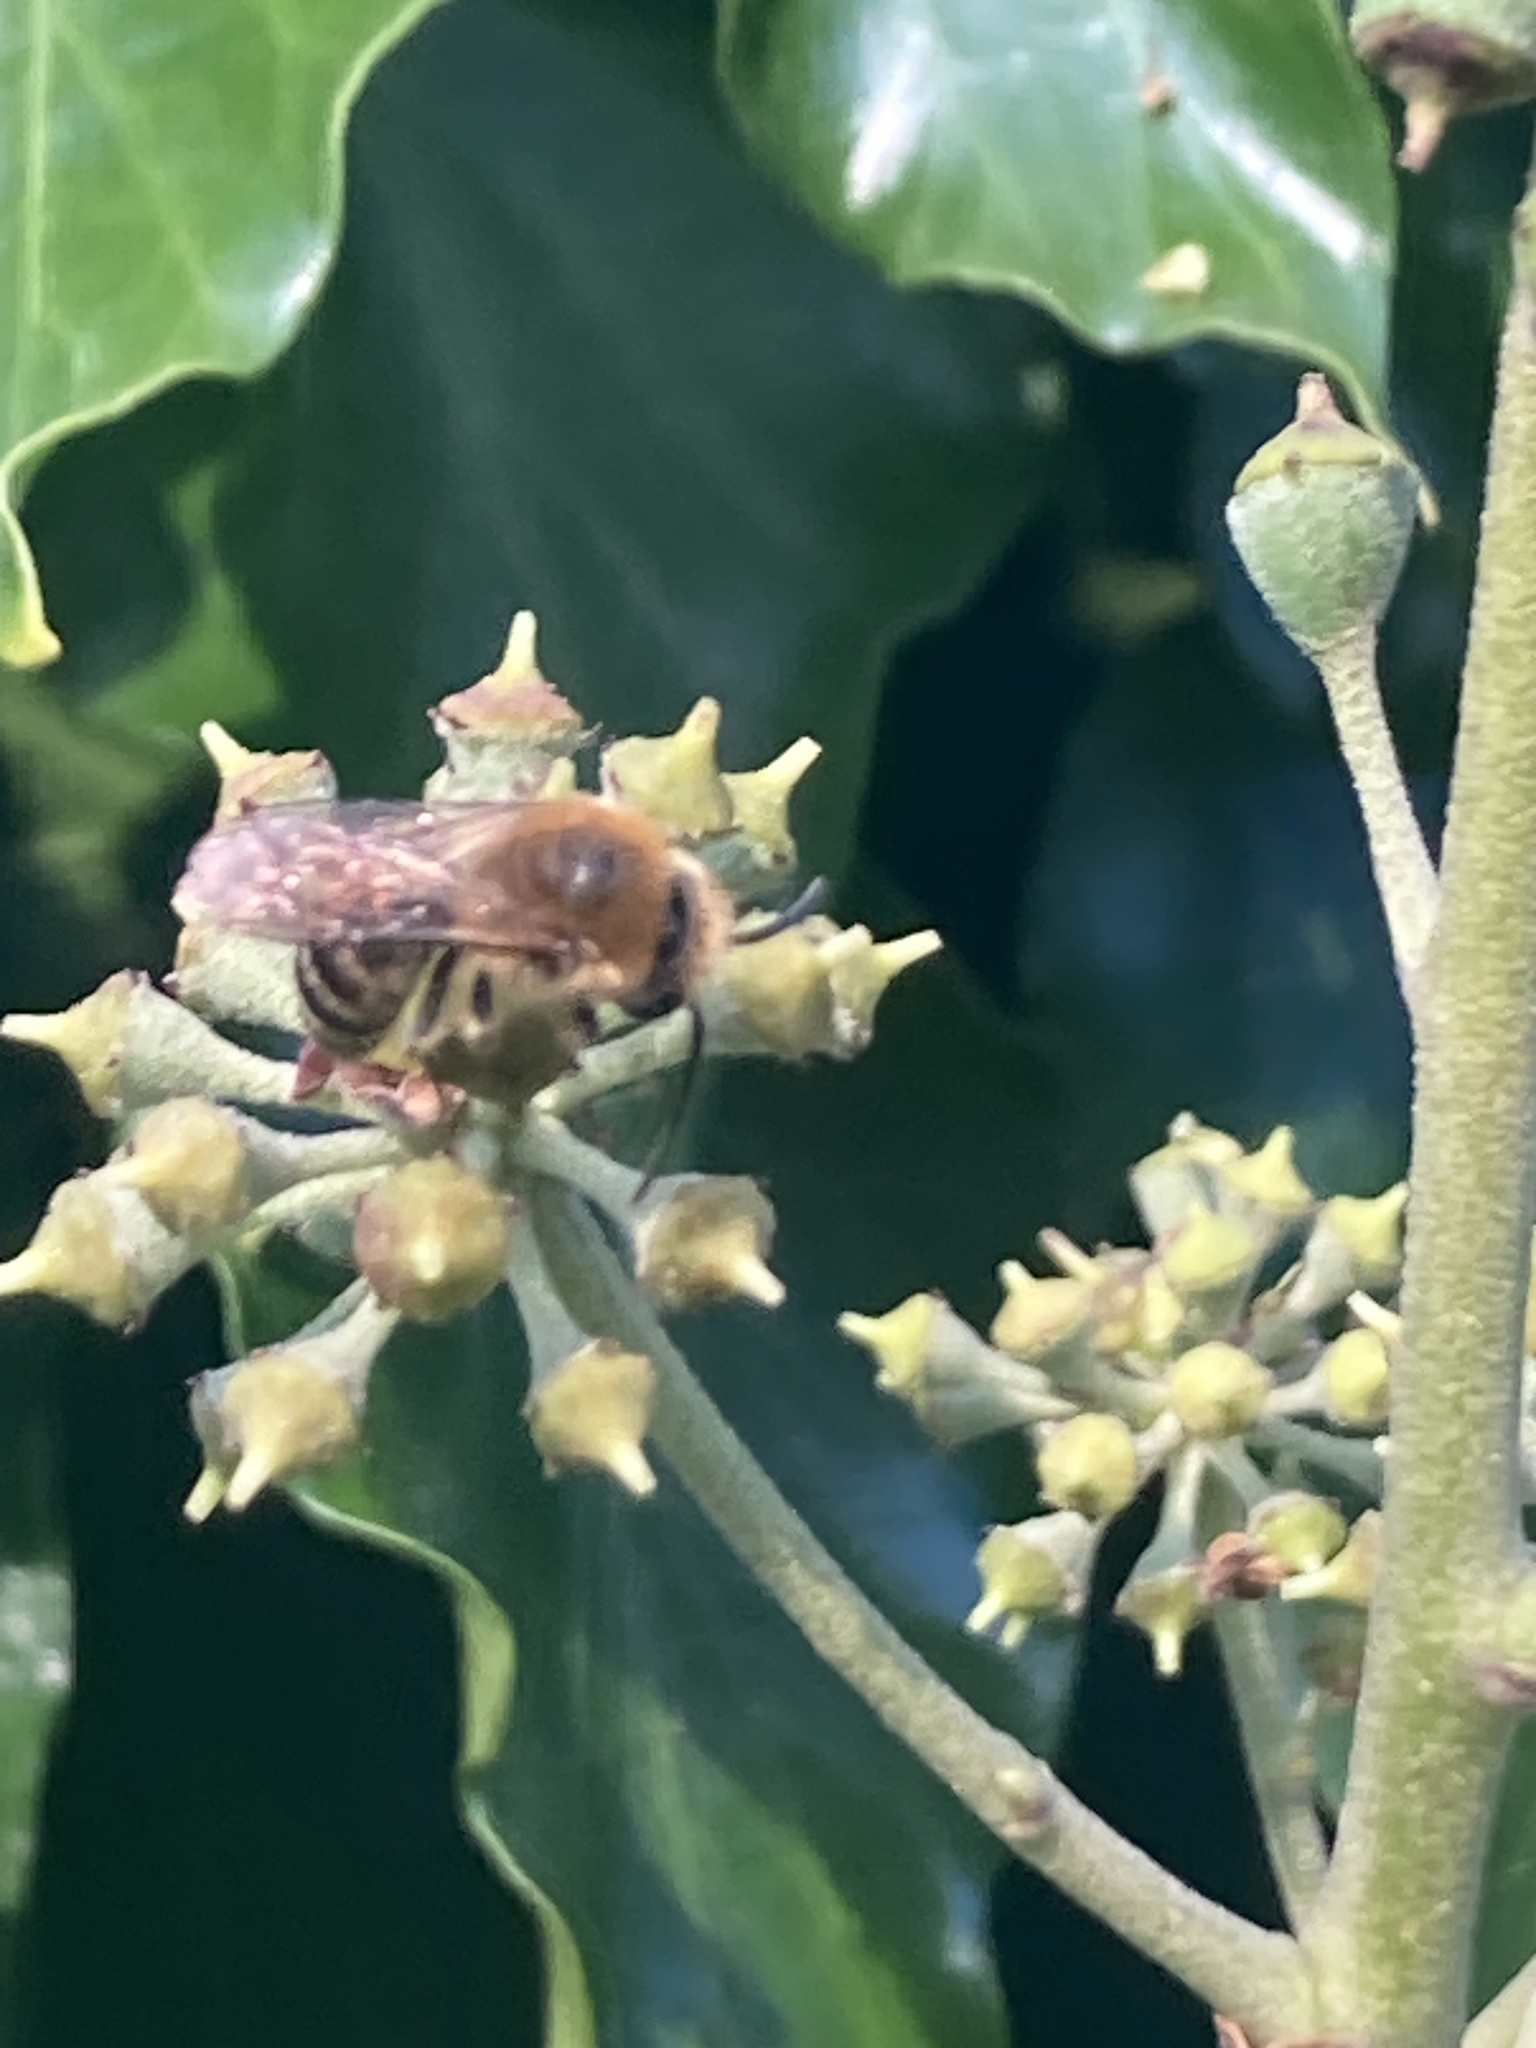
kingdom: Animalia
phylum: Arthropoda
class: Insecta
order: Hymenoptera
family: Colletidae
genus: Colletes
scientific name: Colletes hederae
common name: Ivy bee
